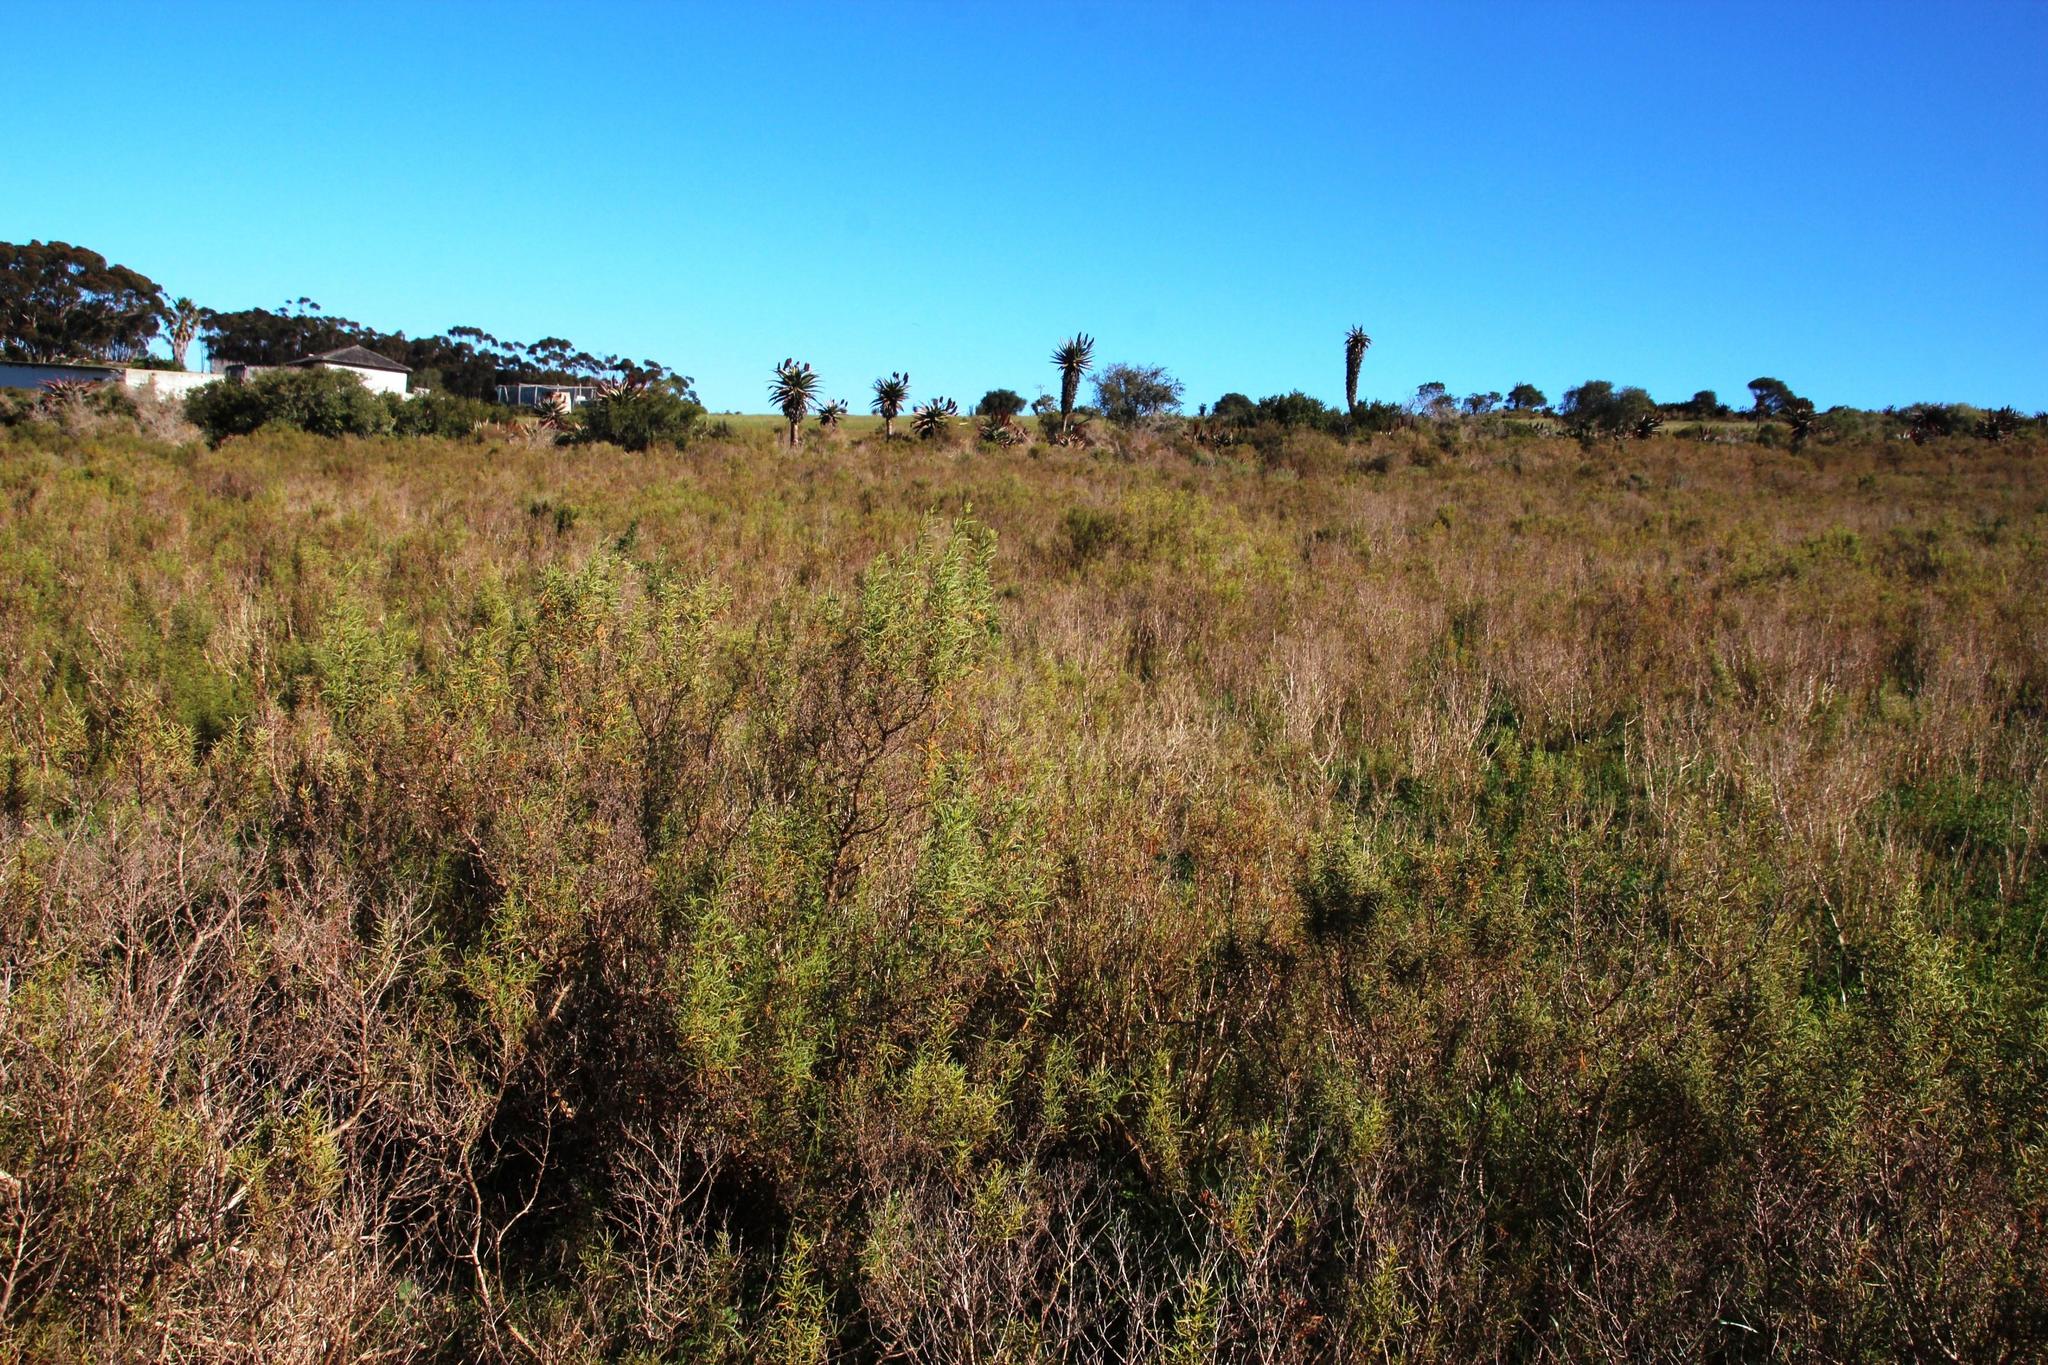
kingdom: Plantae
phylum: Tracheophyta
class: Magnoliopsida
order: Caryophyllales
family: Aizoaceae
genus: Aizoon
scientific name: Aizoon africanum
